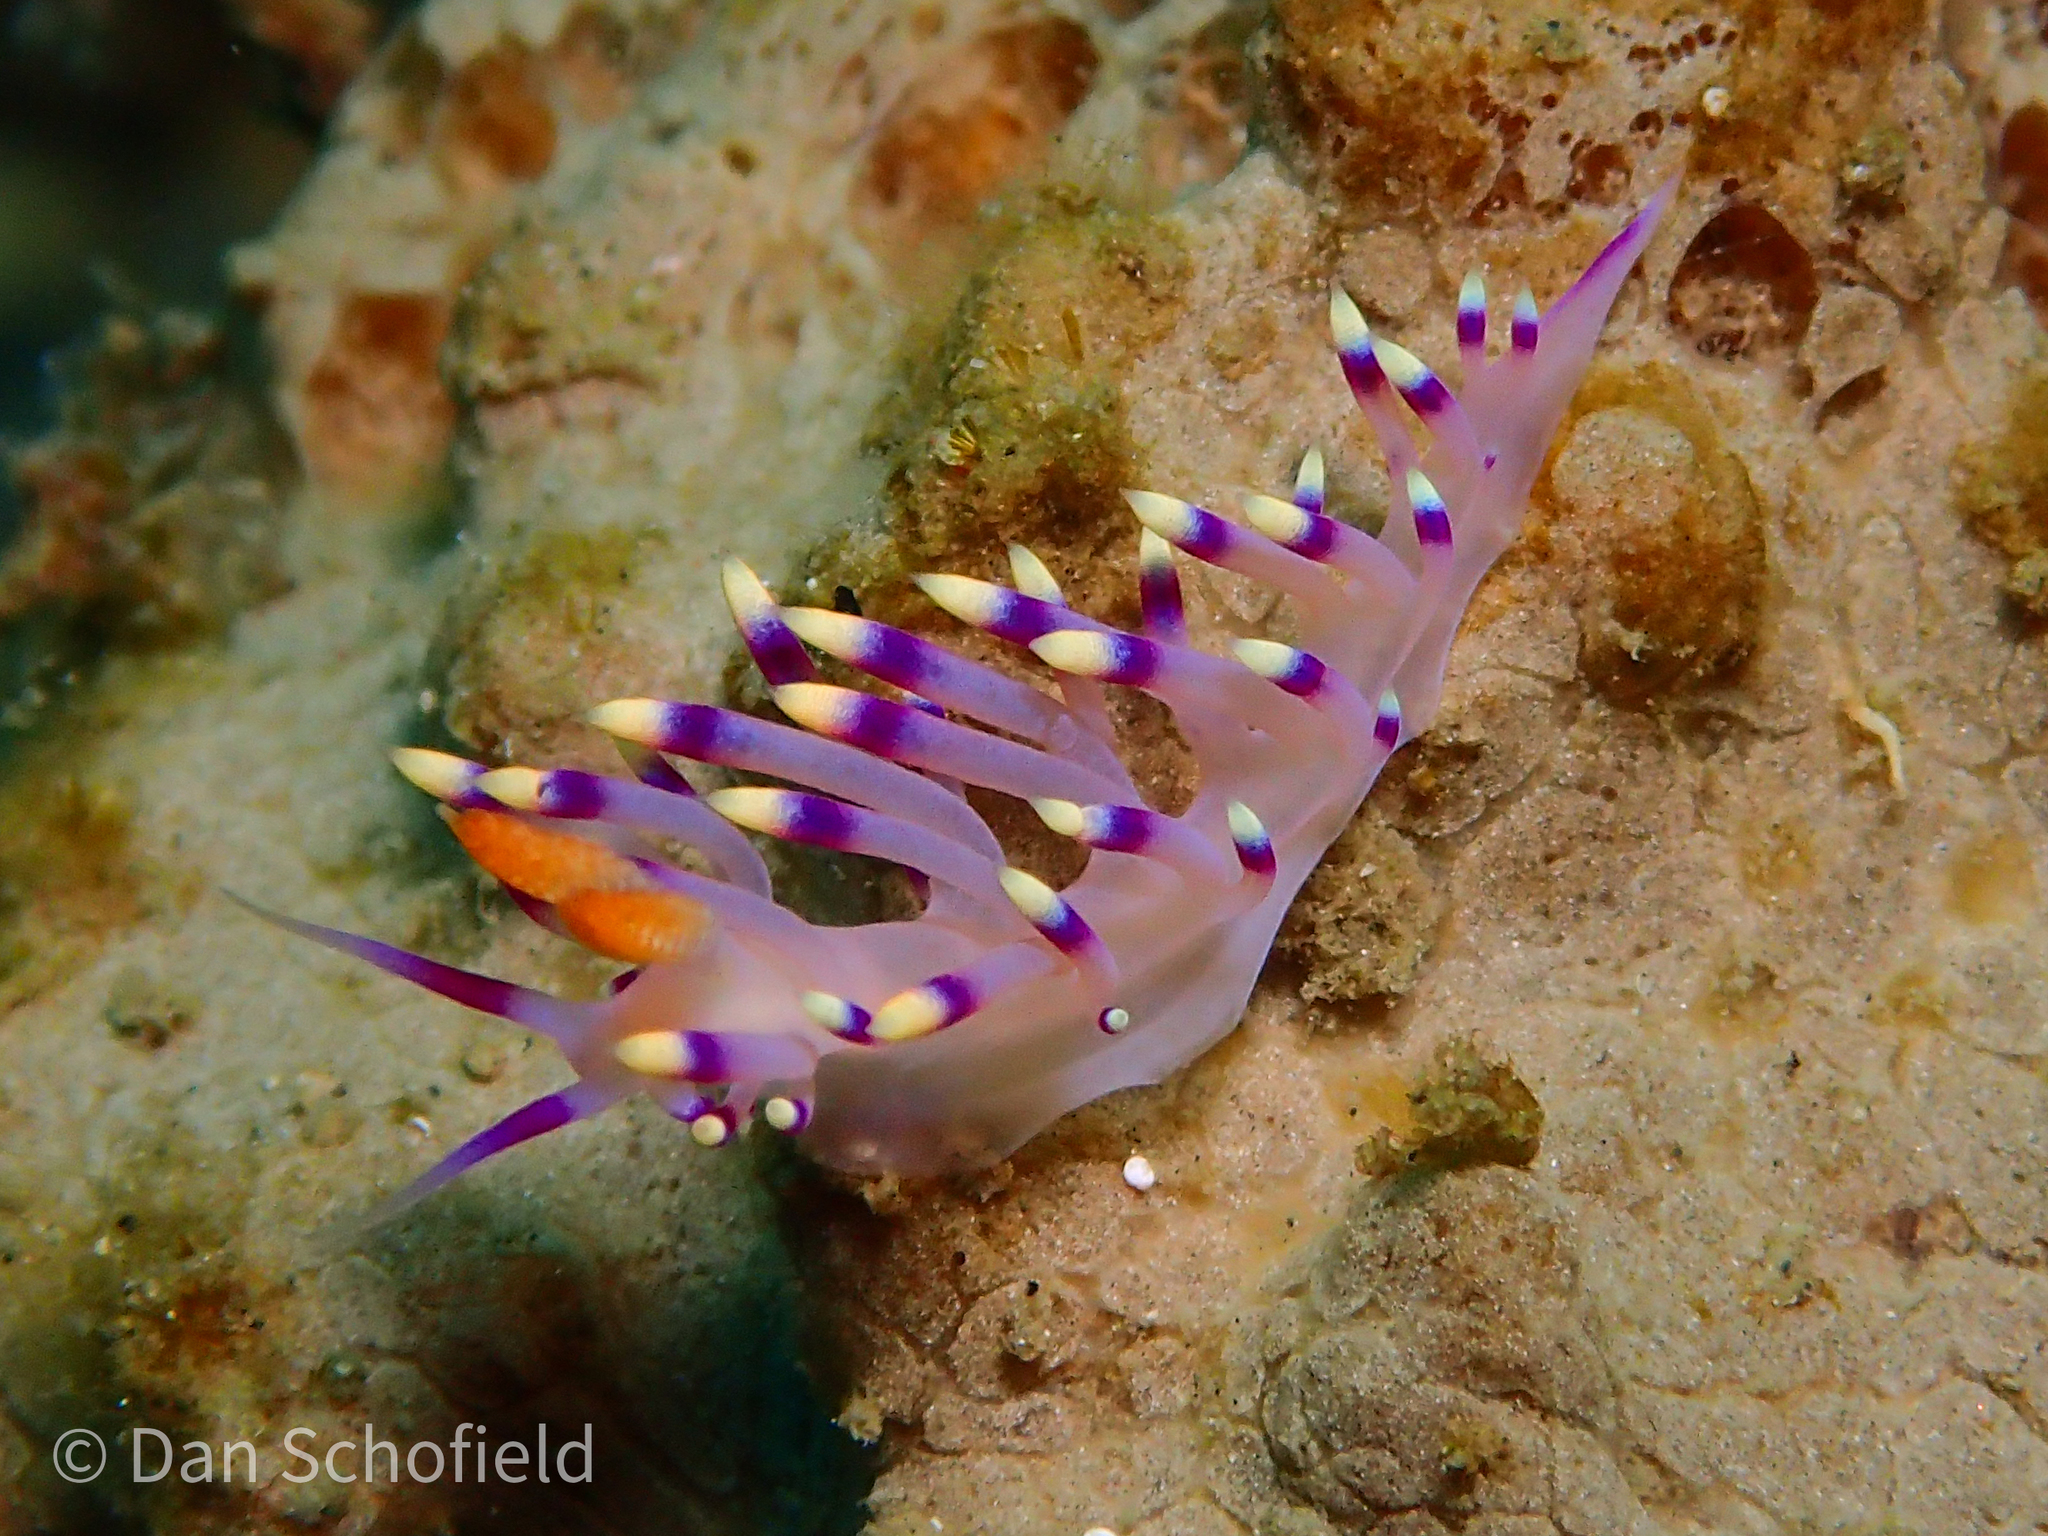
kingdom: Animalia
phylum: Mollusca
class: Gastropoda
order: Nudibranchia
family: Flabellinidae
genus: Coryphellina
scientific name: Coryphellina exoptata
